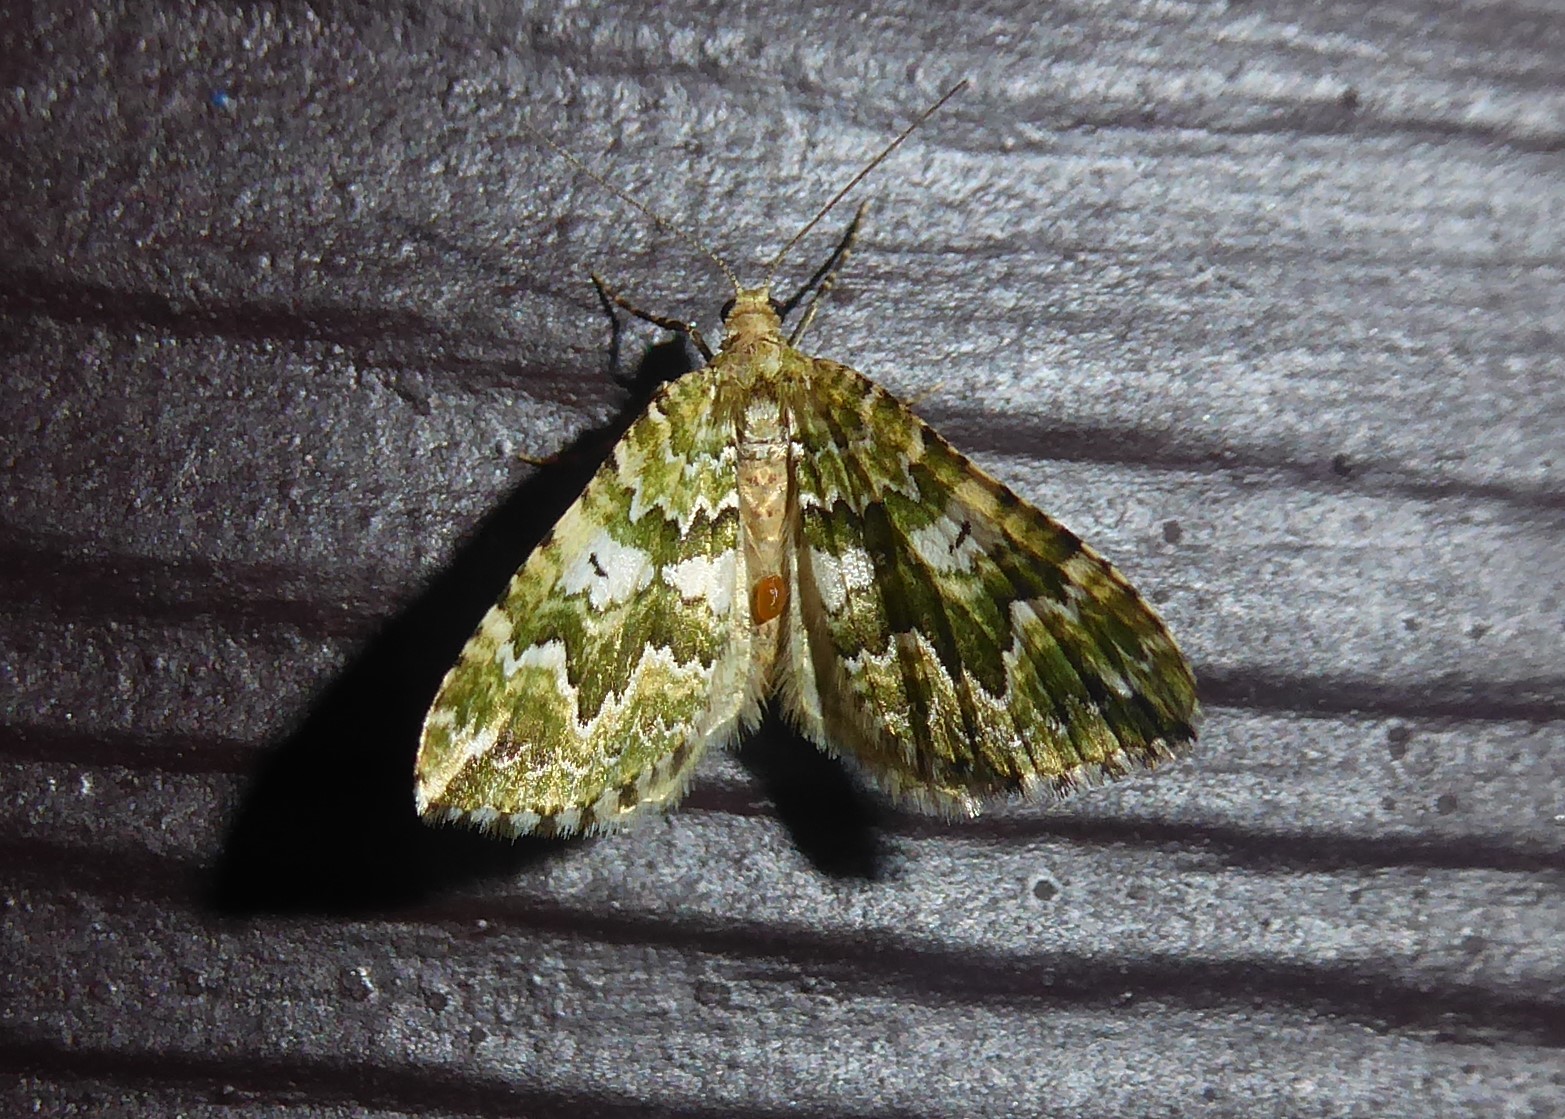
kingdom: Animalia
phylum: Arthropoda
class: Insecta
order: Lepidoptera
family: Geometridae
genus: Asaphodes
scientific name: Asaphodes beata
